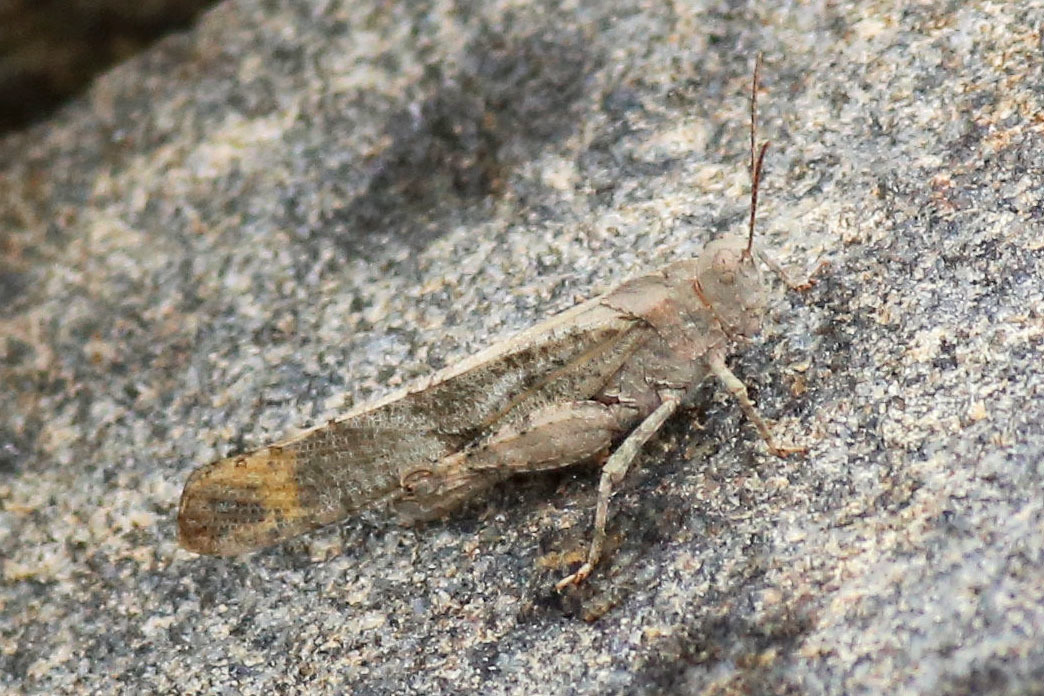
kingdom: Animalia
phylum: Arthropoda
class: Insecta
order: Orthoptera
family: Acrididae
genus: Dissosteira
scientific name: Dissosteira carolina
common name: Carolina grasshopper
